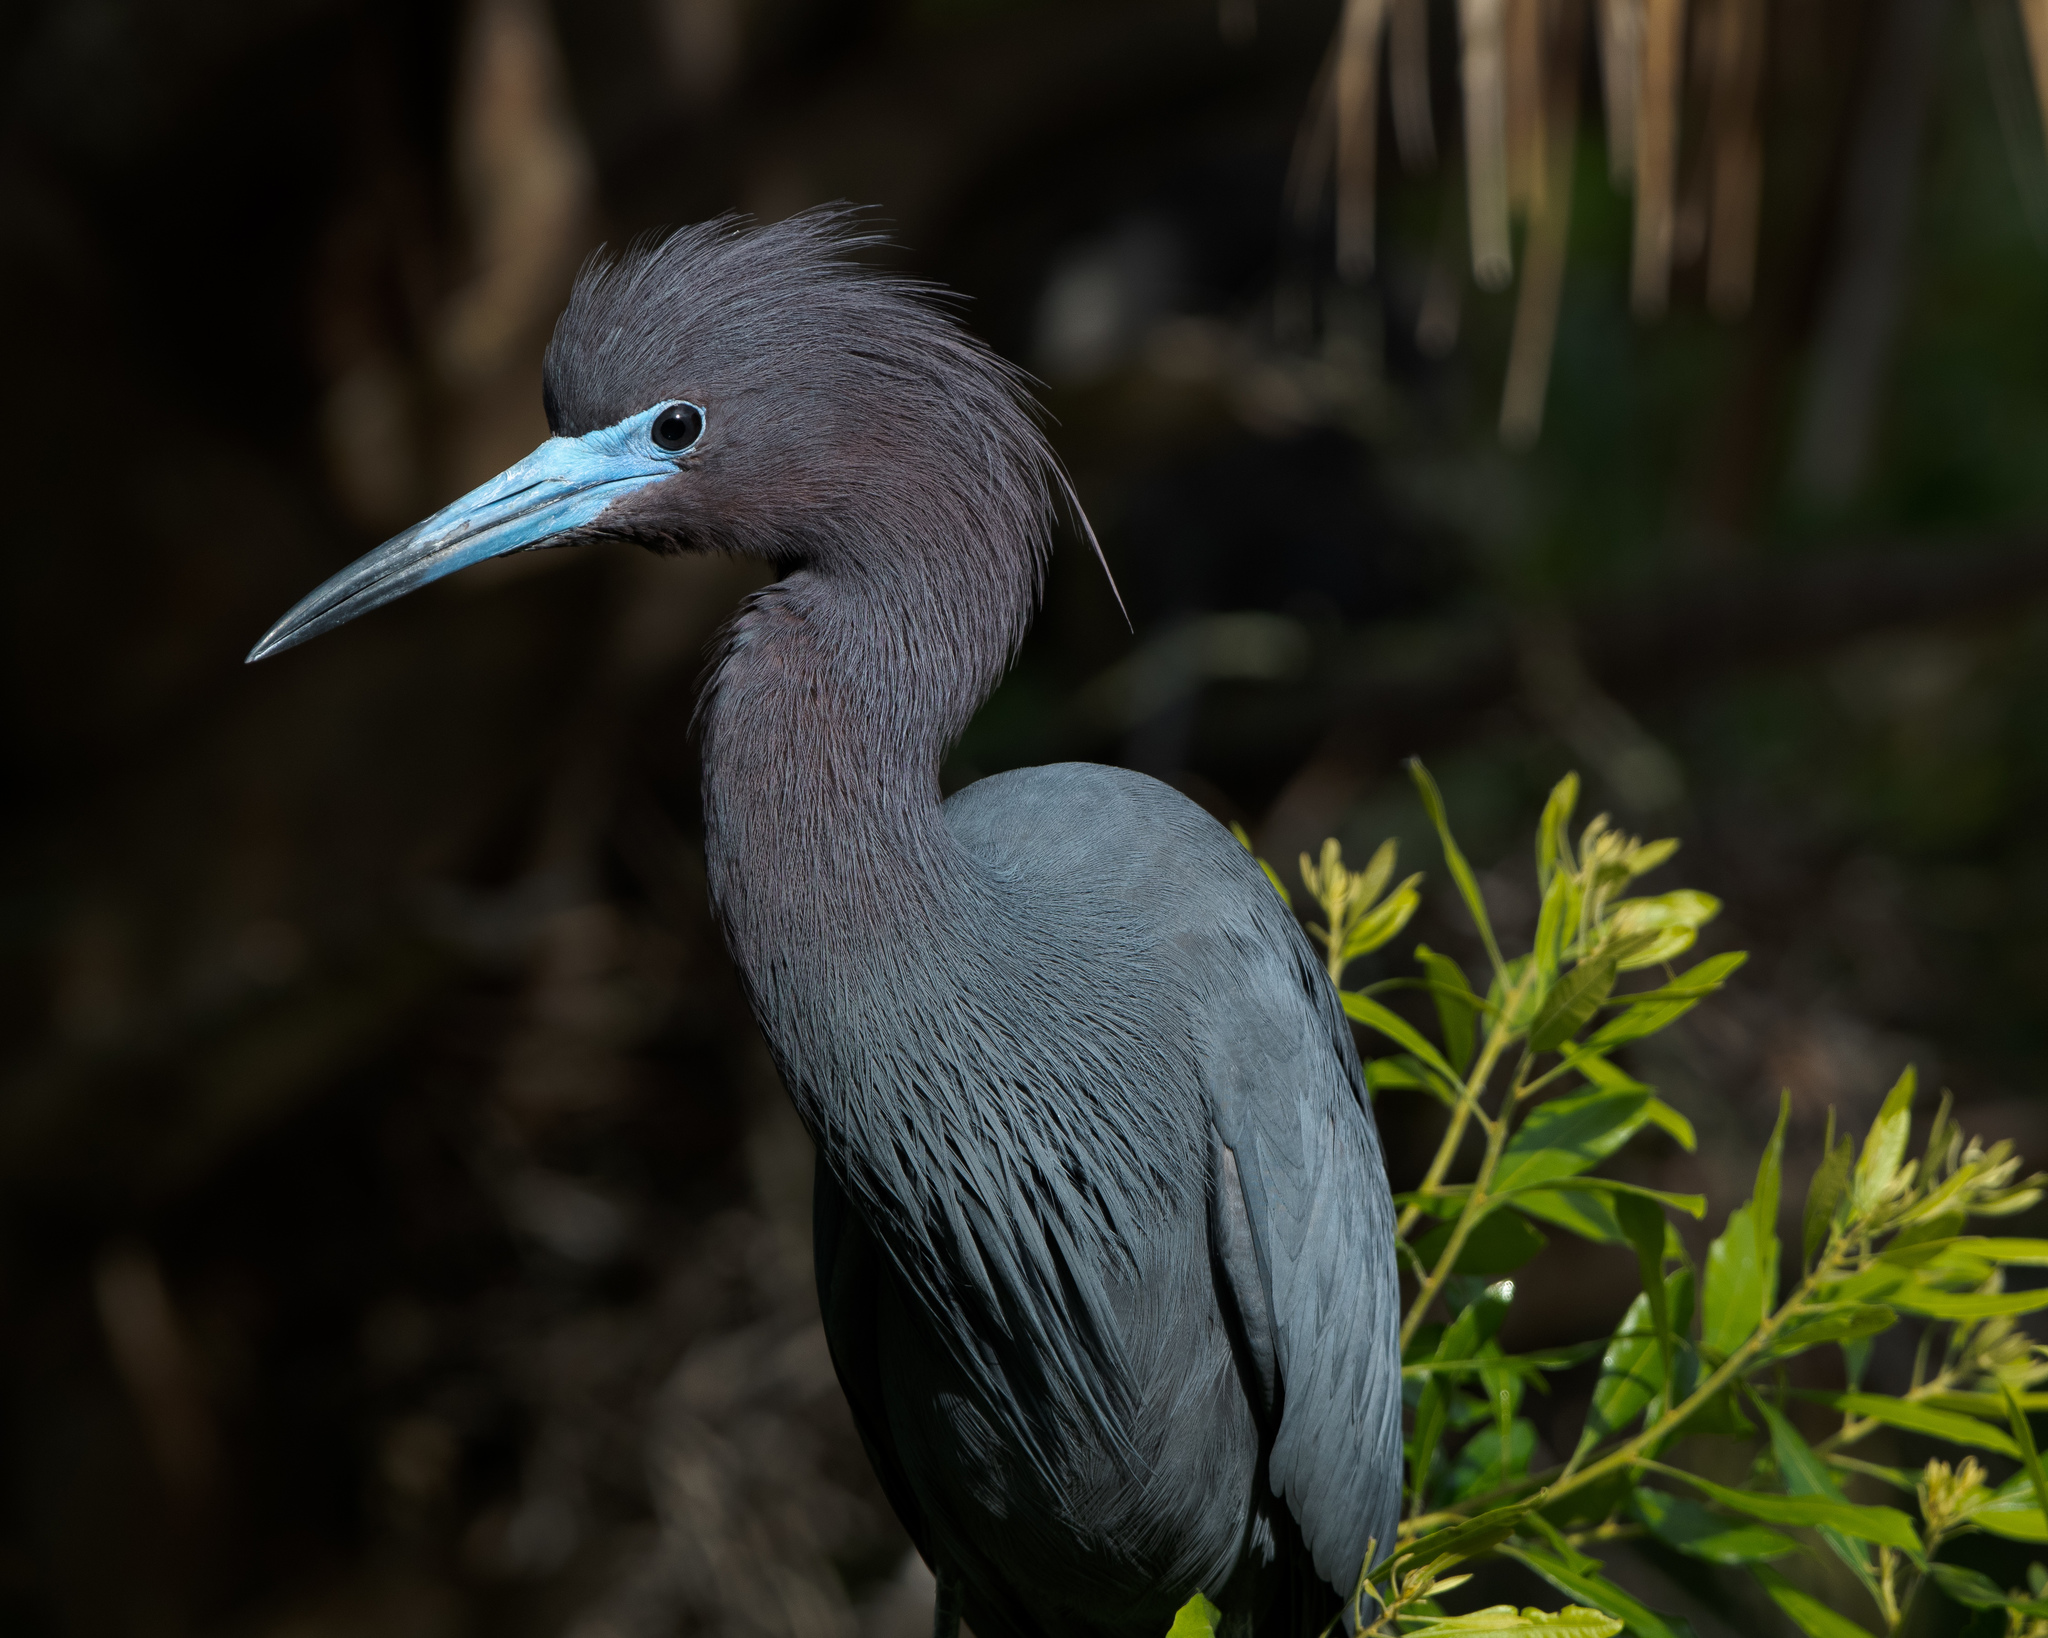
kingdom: Animalia
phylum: Chordata
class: Aves
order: Pelecaniformes
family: Ardeidae
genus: Egretta
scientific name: Egretta caerulea
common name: Little blue heron
